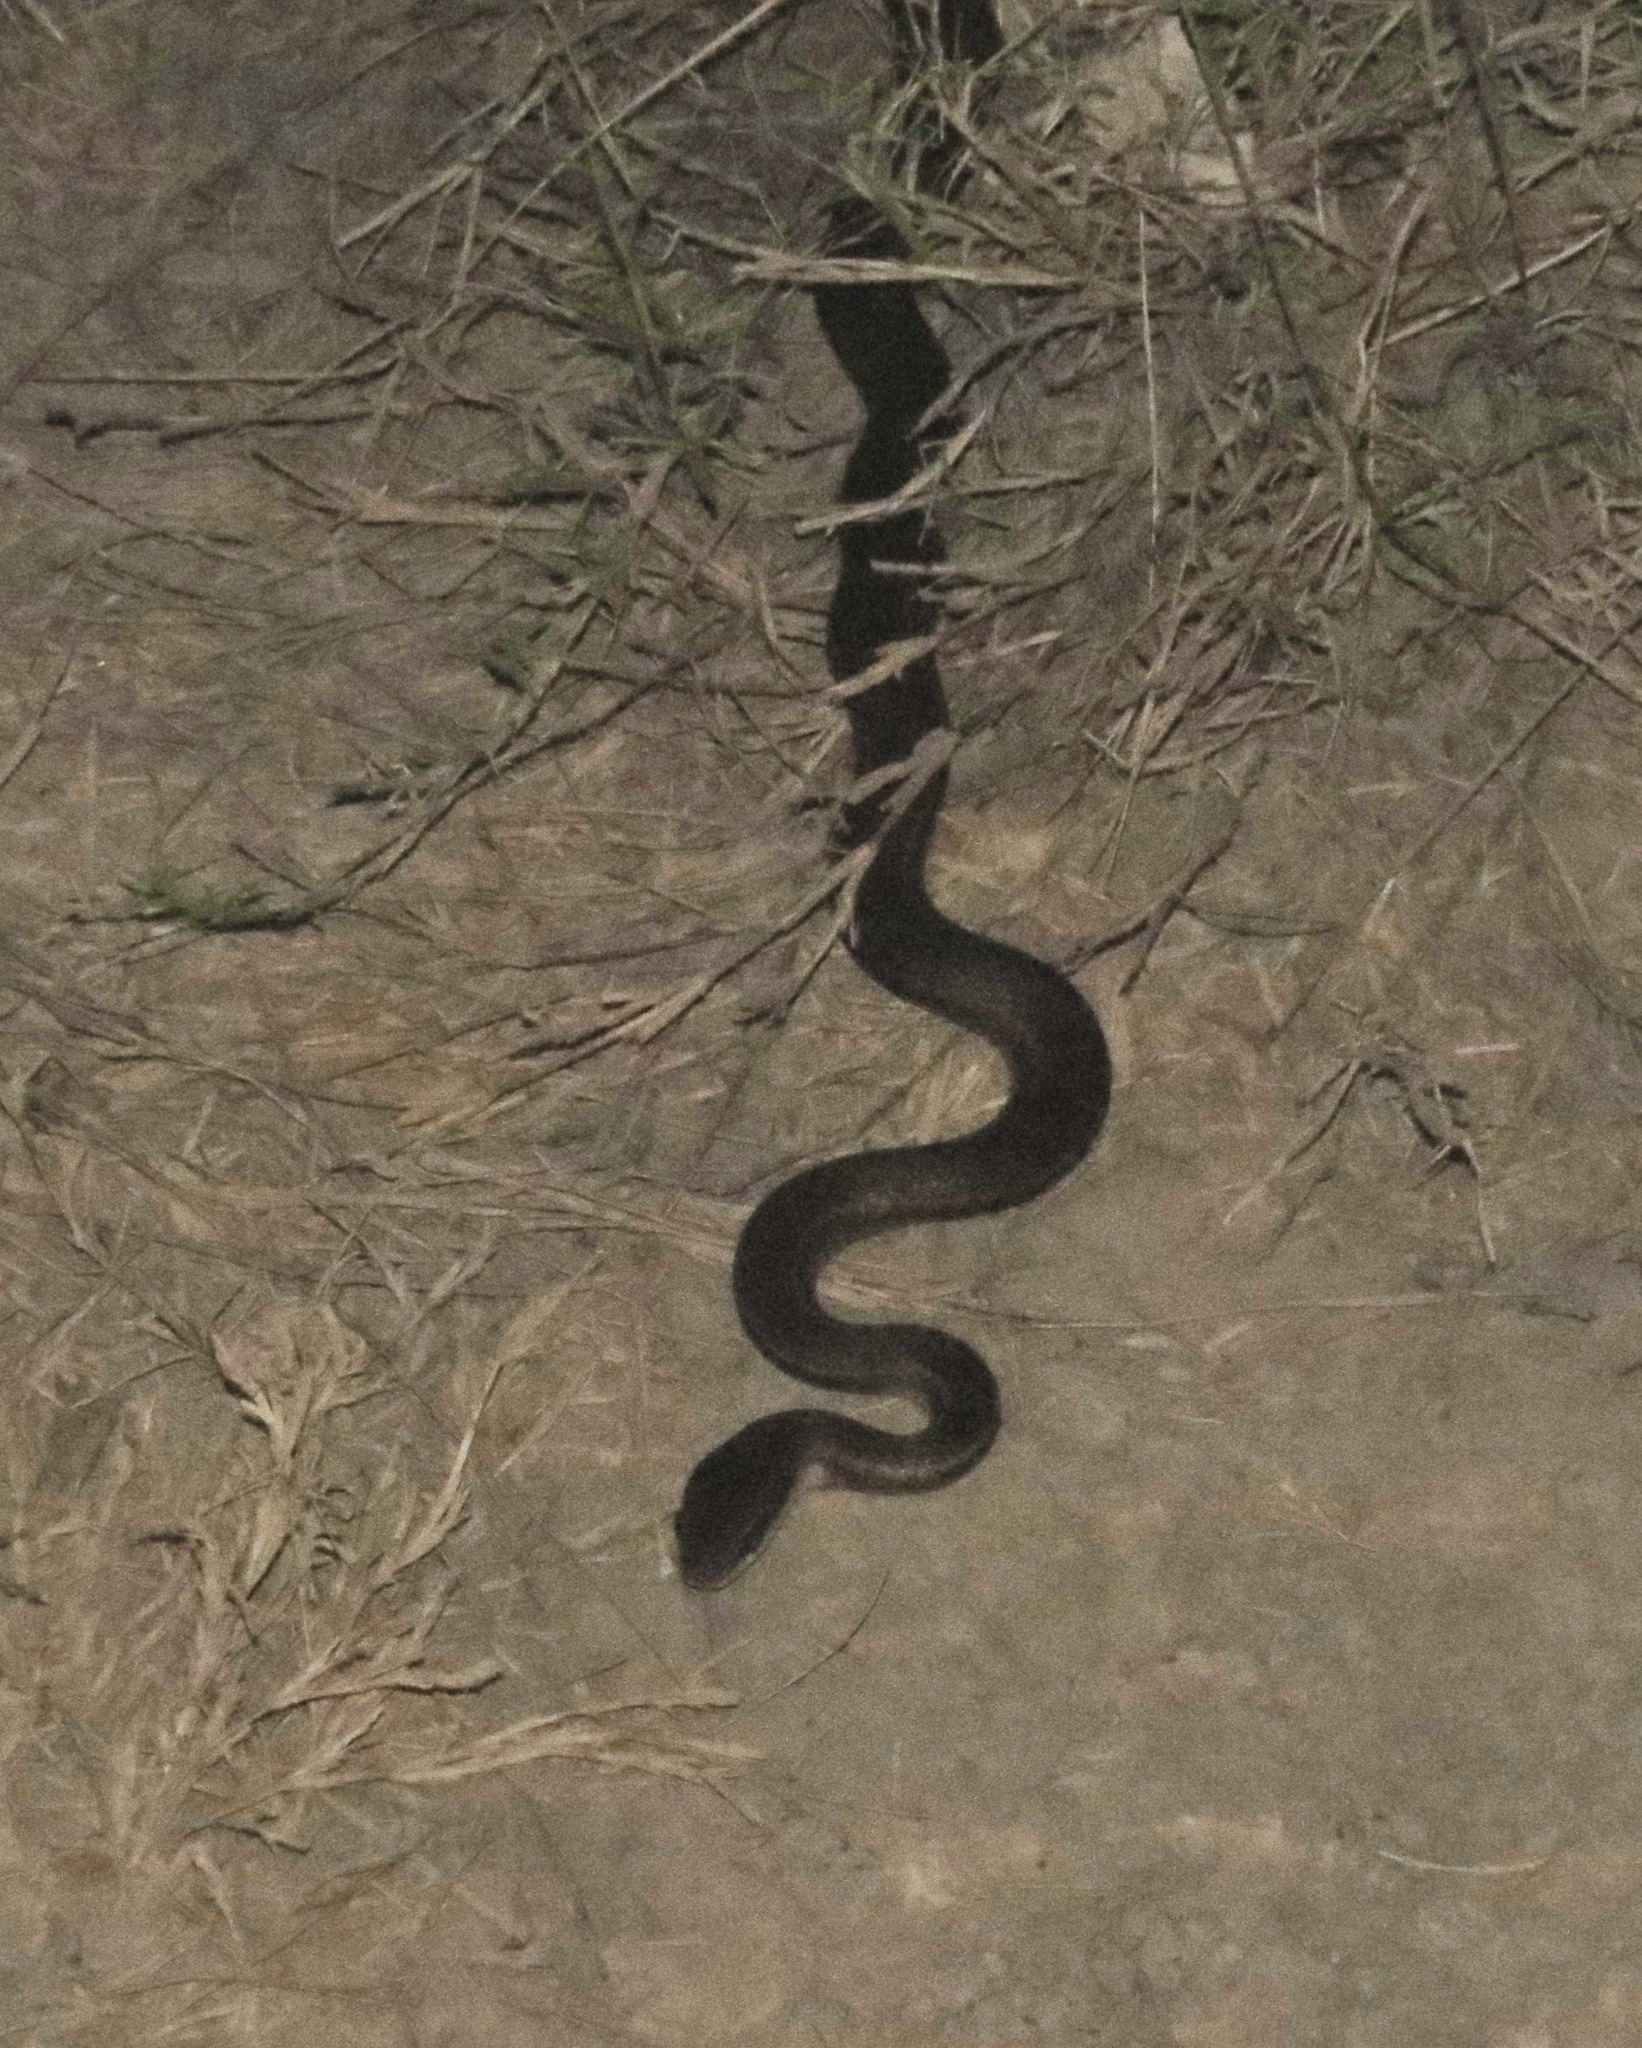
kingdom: Animalia
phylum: Chordata
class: Squamata
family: Colubridae
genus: Mastigodryas
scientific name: Mastigodryas boddaerti
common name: Boddaert's tropical racer
